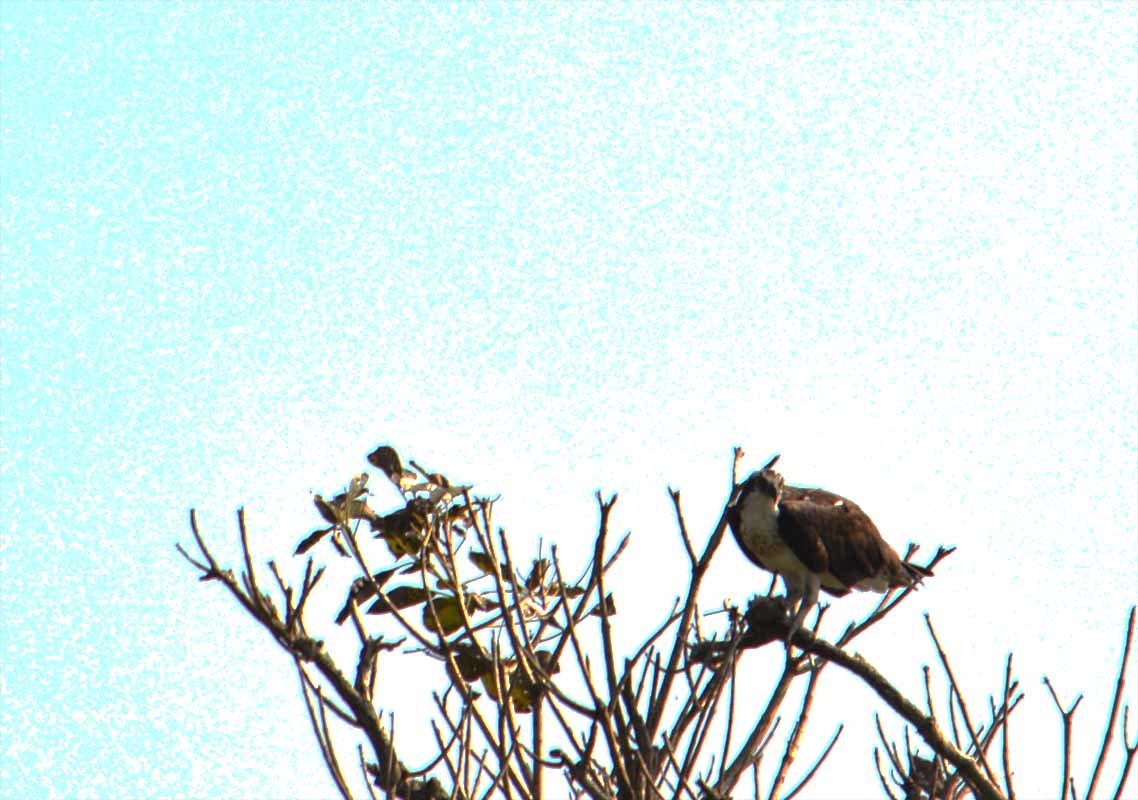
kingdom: Animalia
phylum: Chordata
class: Aves
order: Accipitriformes
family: Pandionidae
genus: Pandion
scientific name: Pandion haliaetus
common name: Osprey
